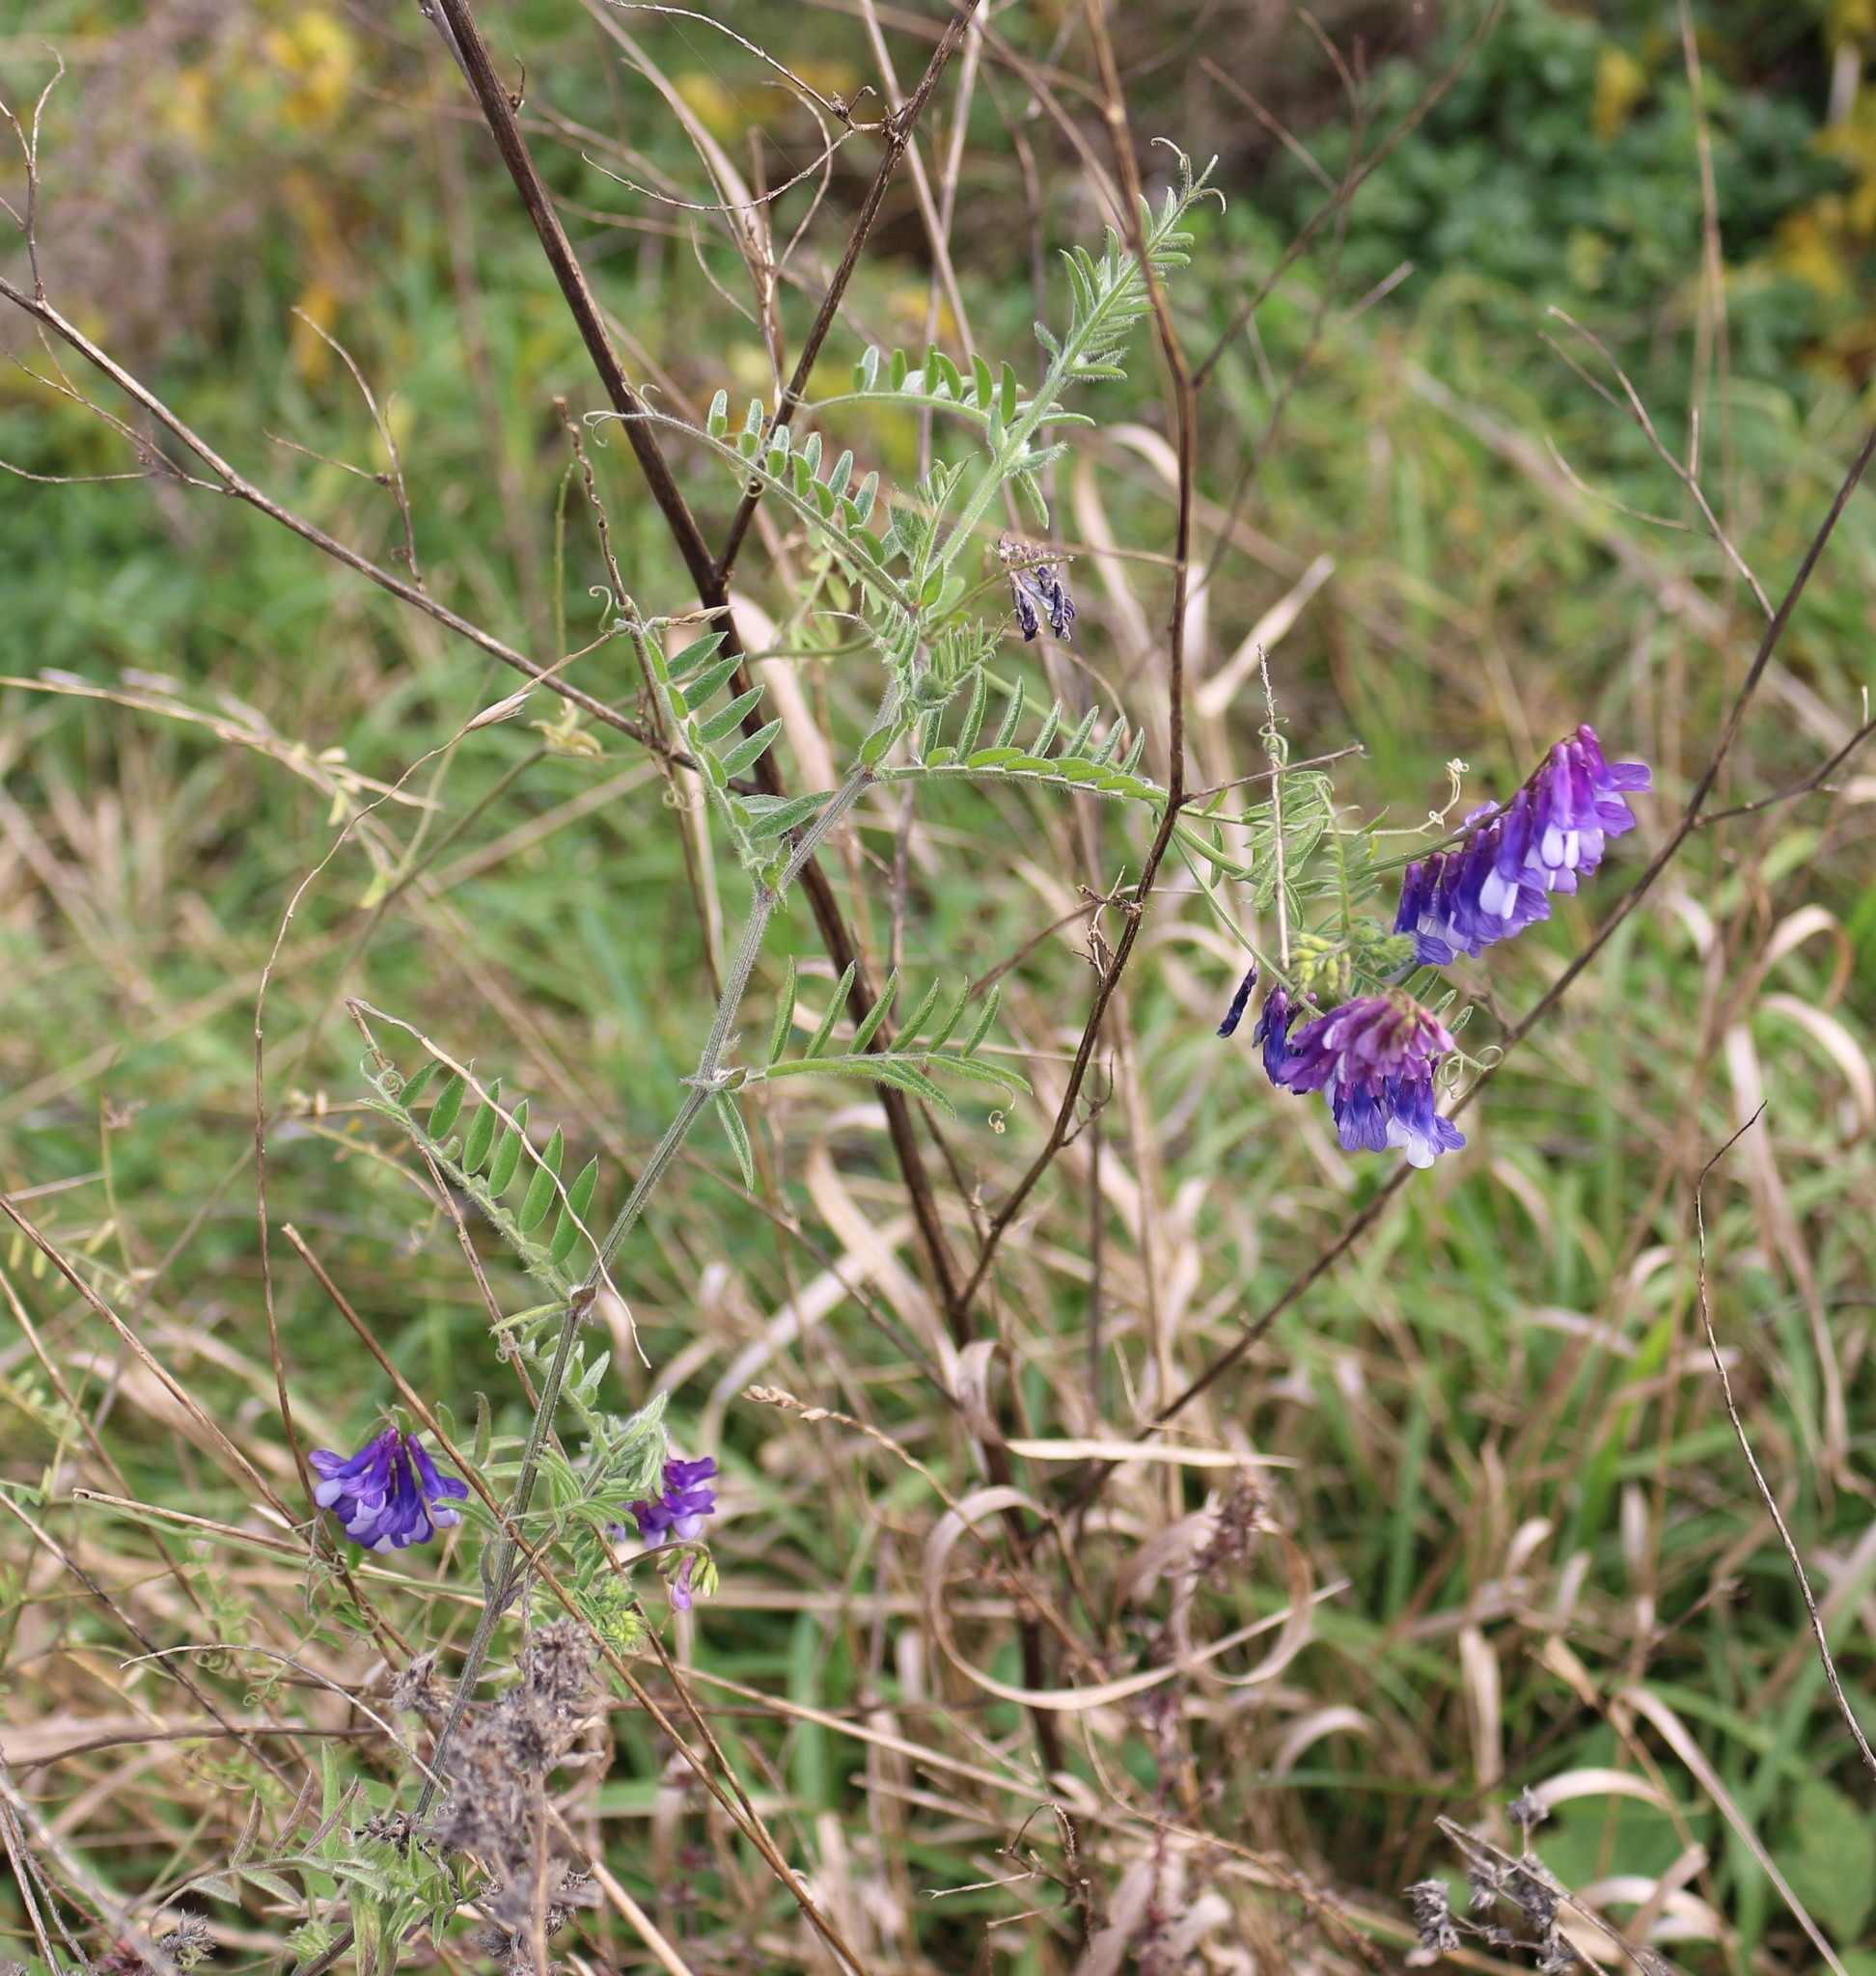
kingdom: Plantae
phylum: Tracheophyta
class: Magnoliopsida
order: Fabales
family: Fabaceae
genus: Vicia
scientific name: Vicia villosa
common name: Fodder vetch
